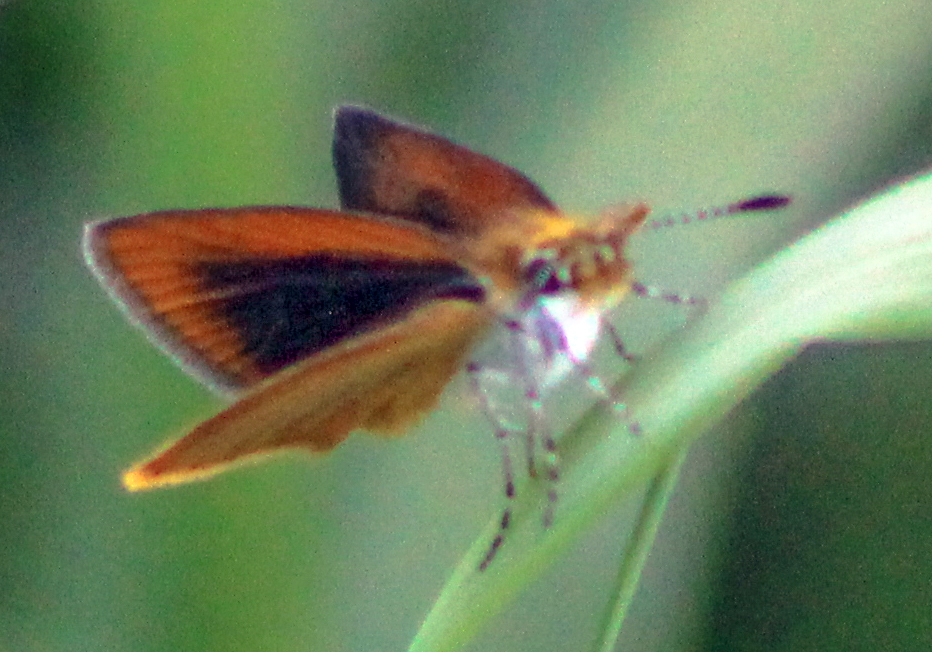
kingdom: Animalia
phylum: Arthropoda
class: Insecta
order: Lepidoptera
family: Hesperiidae
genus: Ancyloxypha
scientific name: Ancyloxypha numitor
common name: Least skipper
